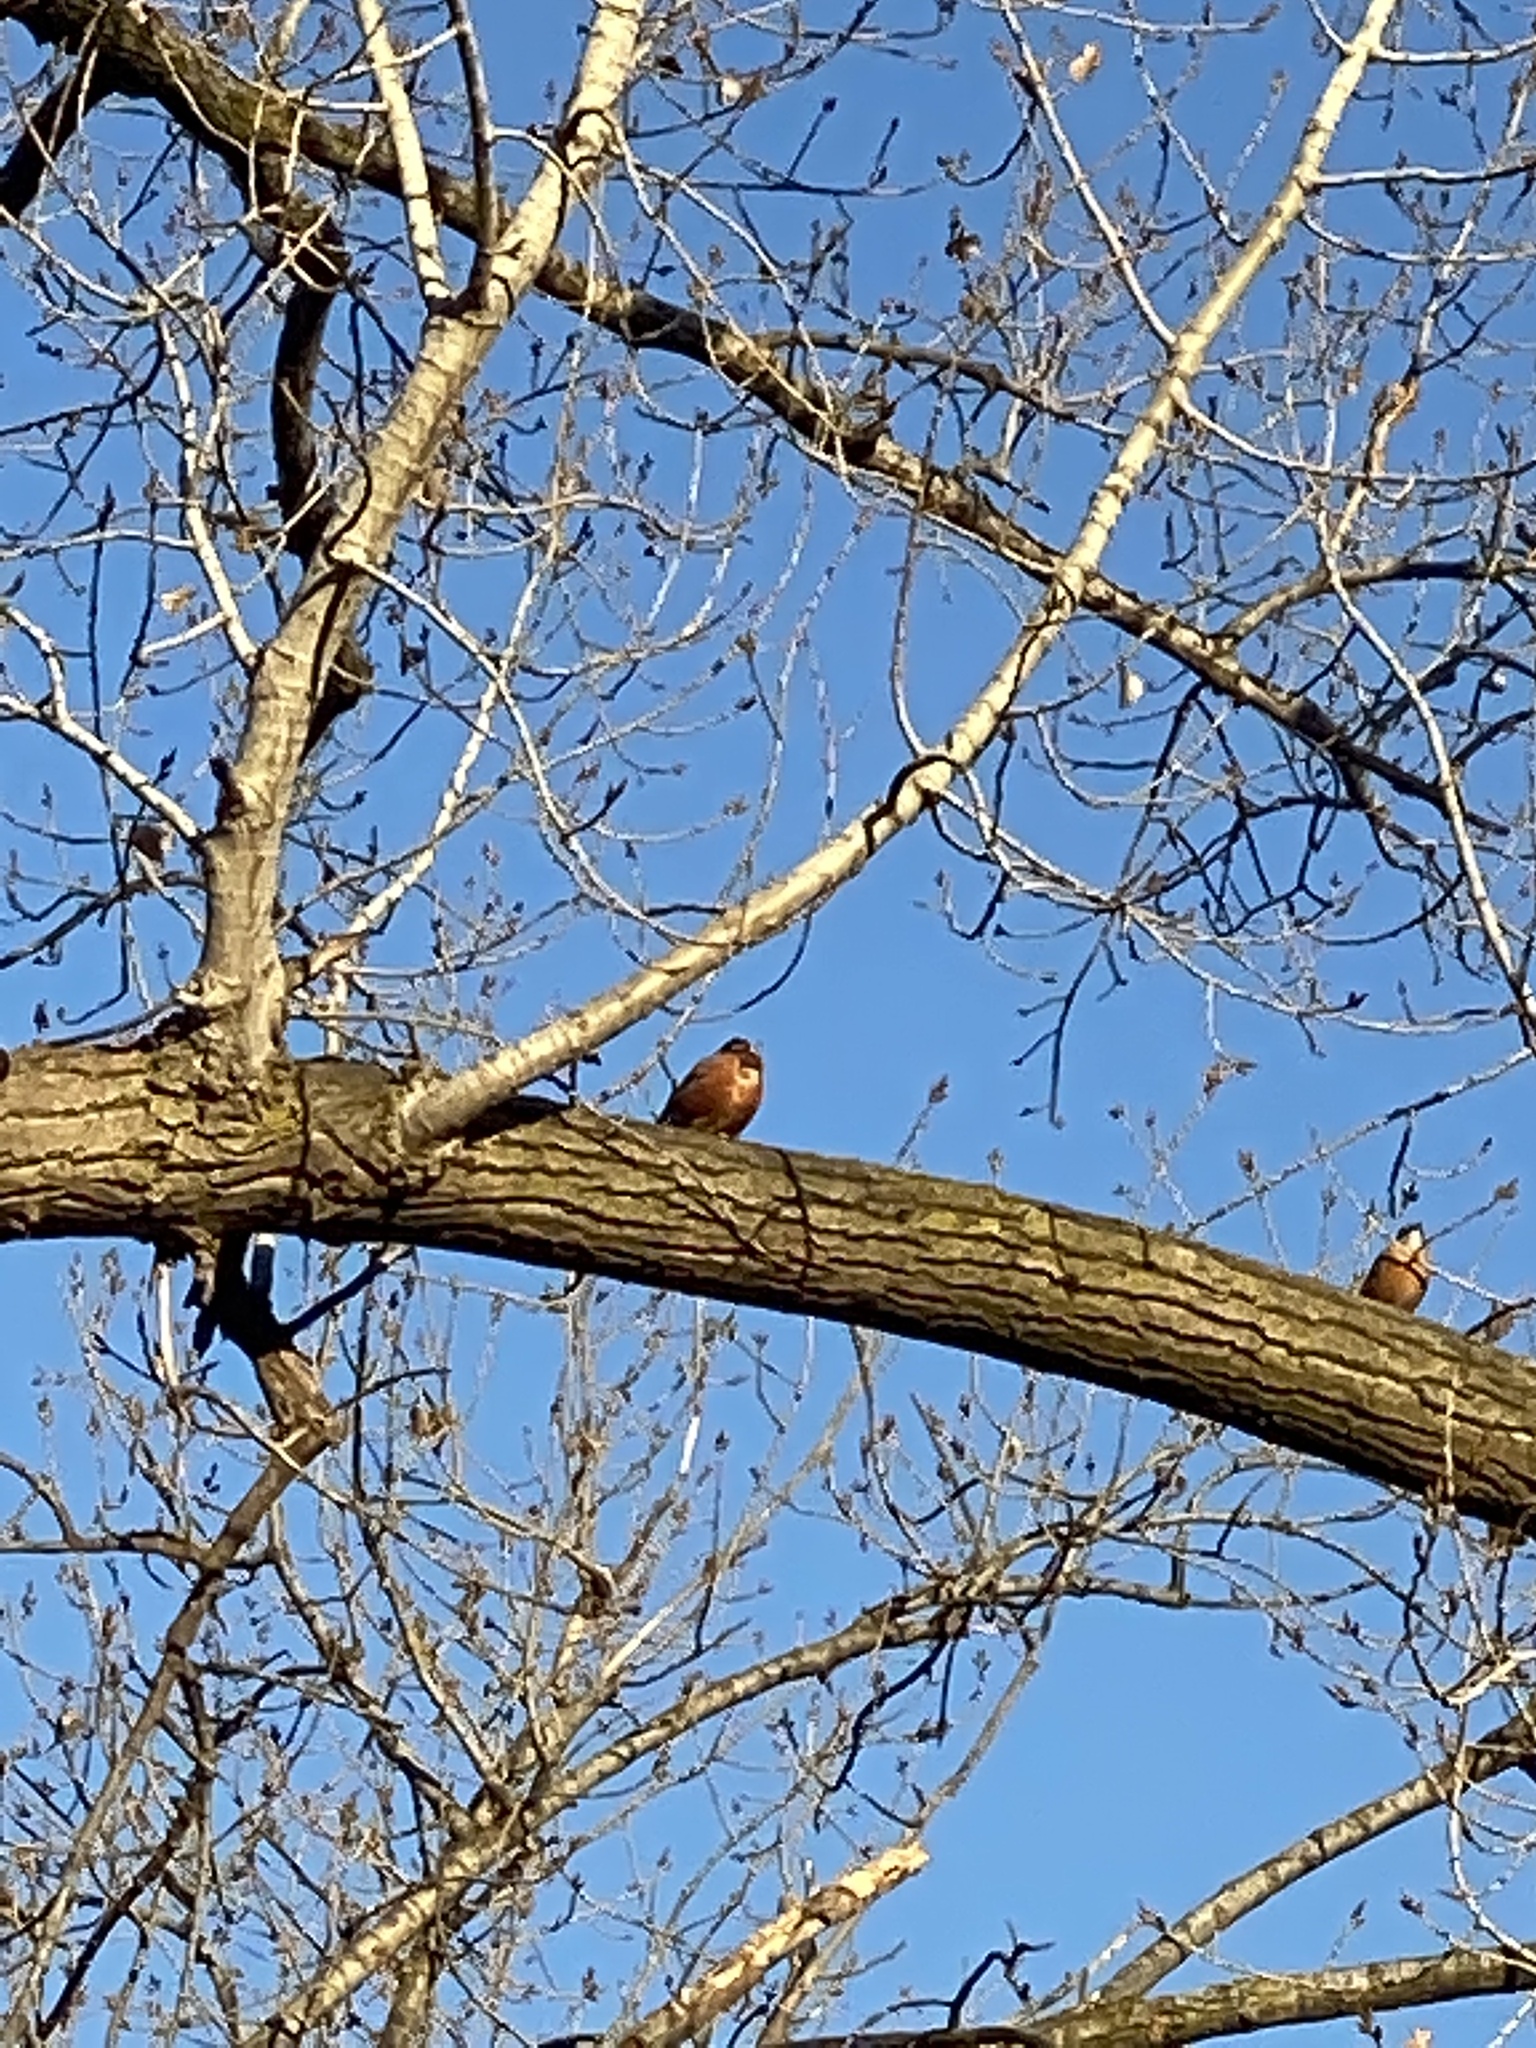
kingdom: Animalia
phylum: Chordata
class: Aves
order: Passeriformes
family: Turdidae
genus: Turdus
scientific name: Turdus migratorius
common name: American robin
